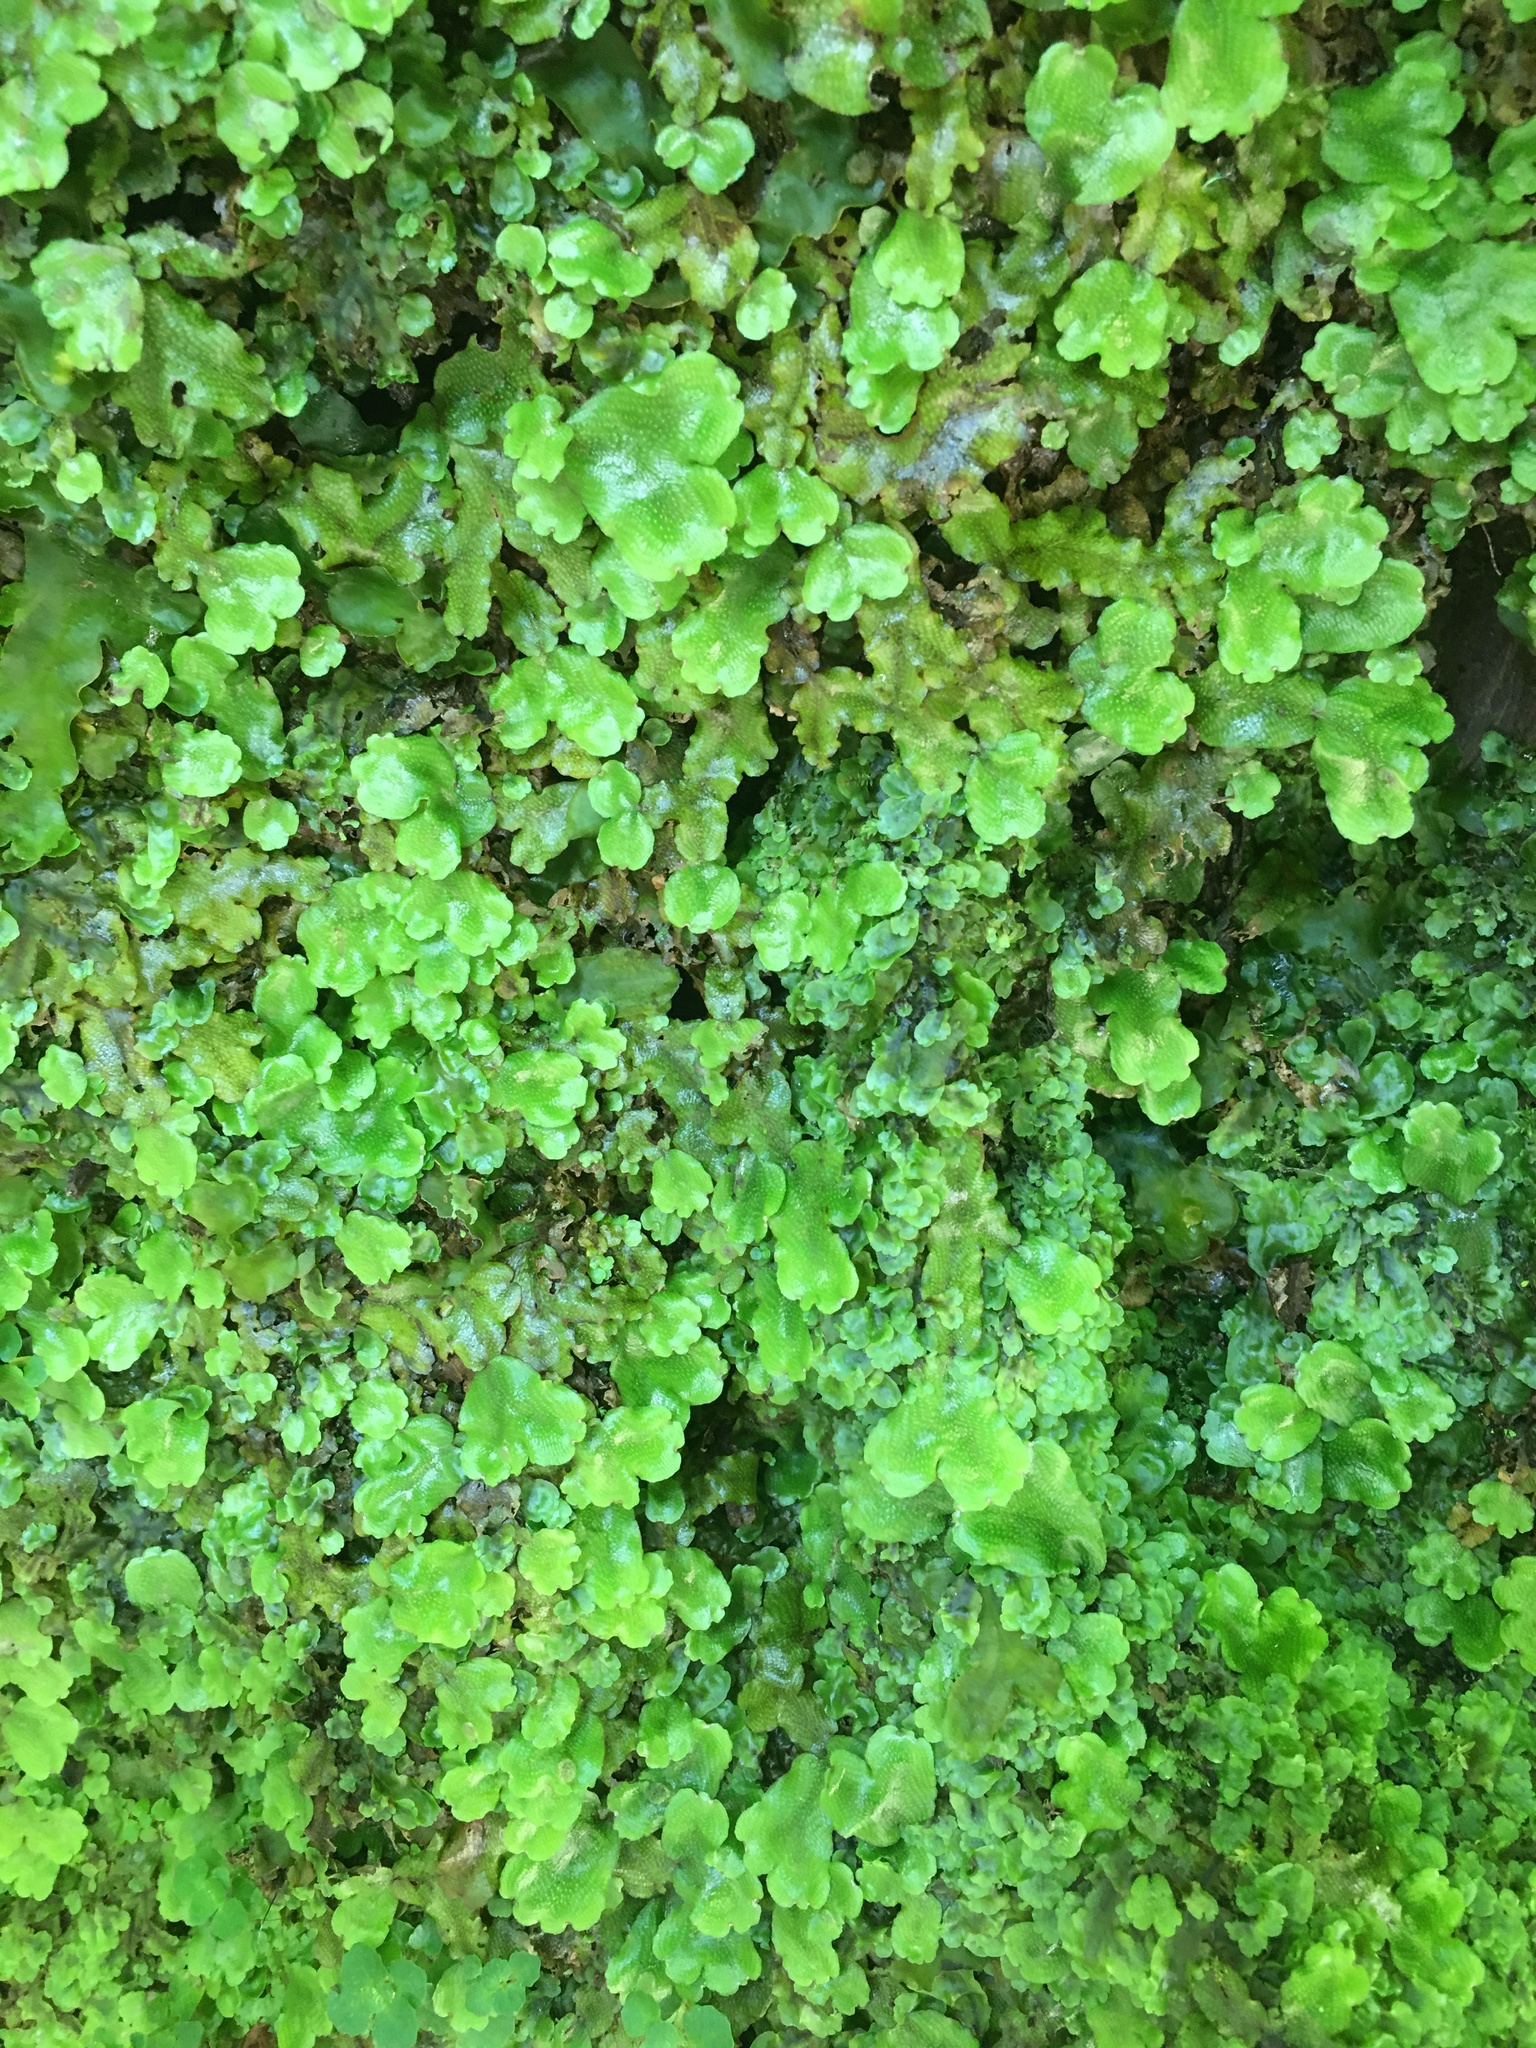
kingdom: Plantae
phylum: Marchantiophyta
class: Marchantiopsida
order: Marchantiales
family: Conocephalaceae
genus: Conocephalum
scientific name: Conocephalum conicum
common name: Great scented liverwort
